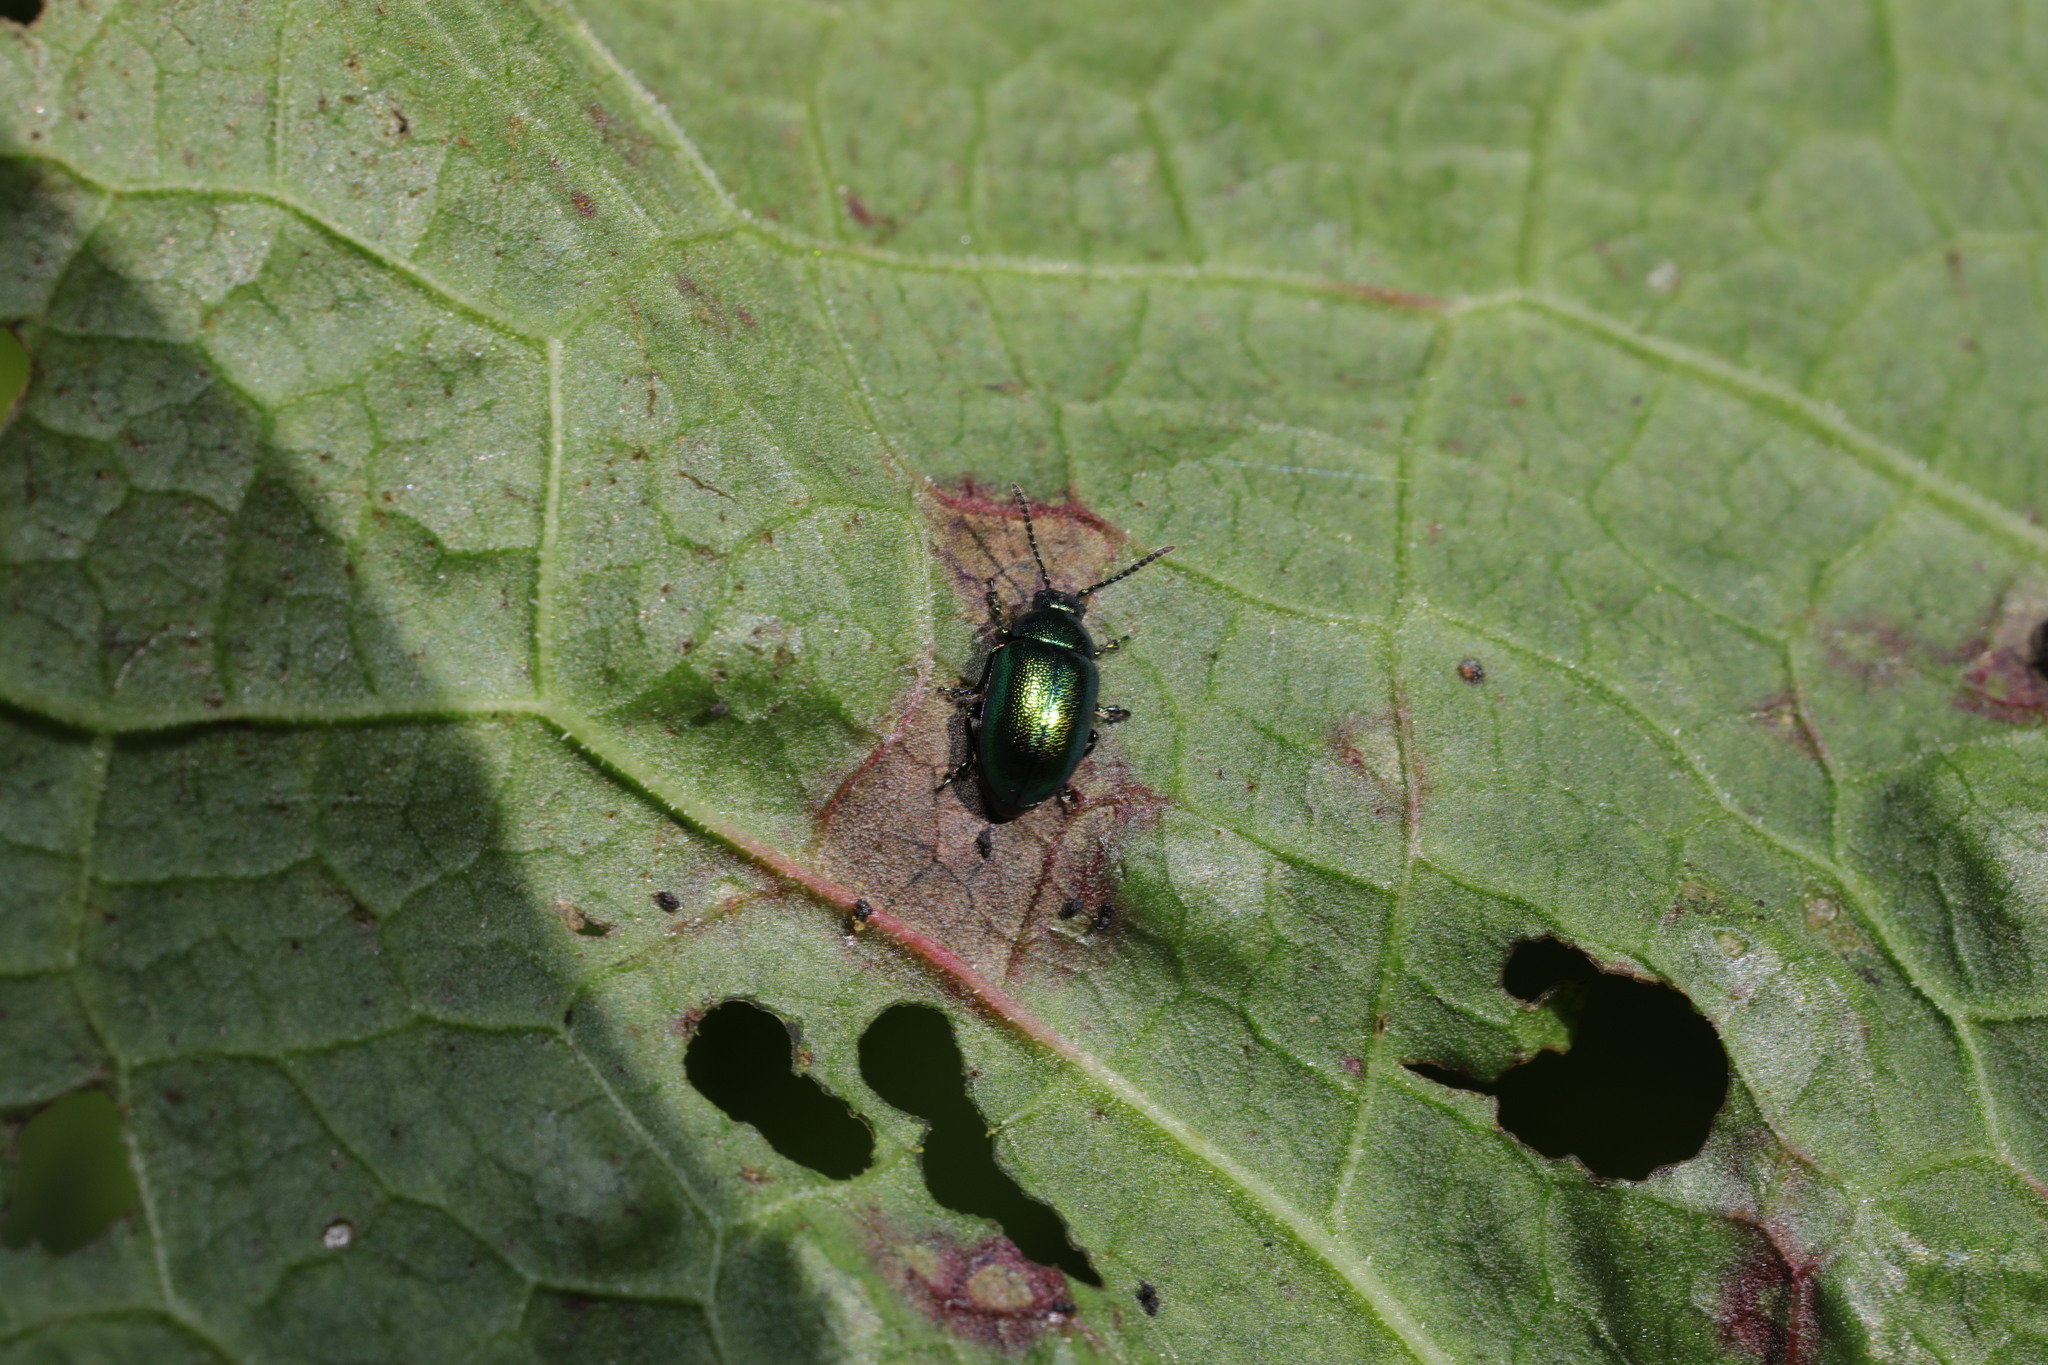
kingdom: Animalia
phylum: Arthropoda
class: Insecta
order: Coleoptera
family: Chrysomelidae
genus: Gastrophysa
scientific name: Gastrophysa viridula
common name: Green dock beetle
